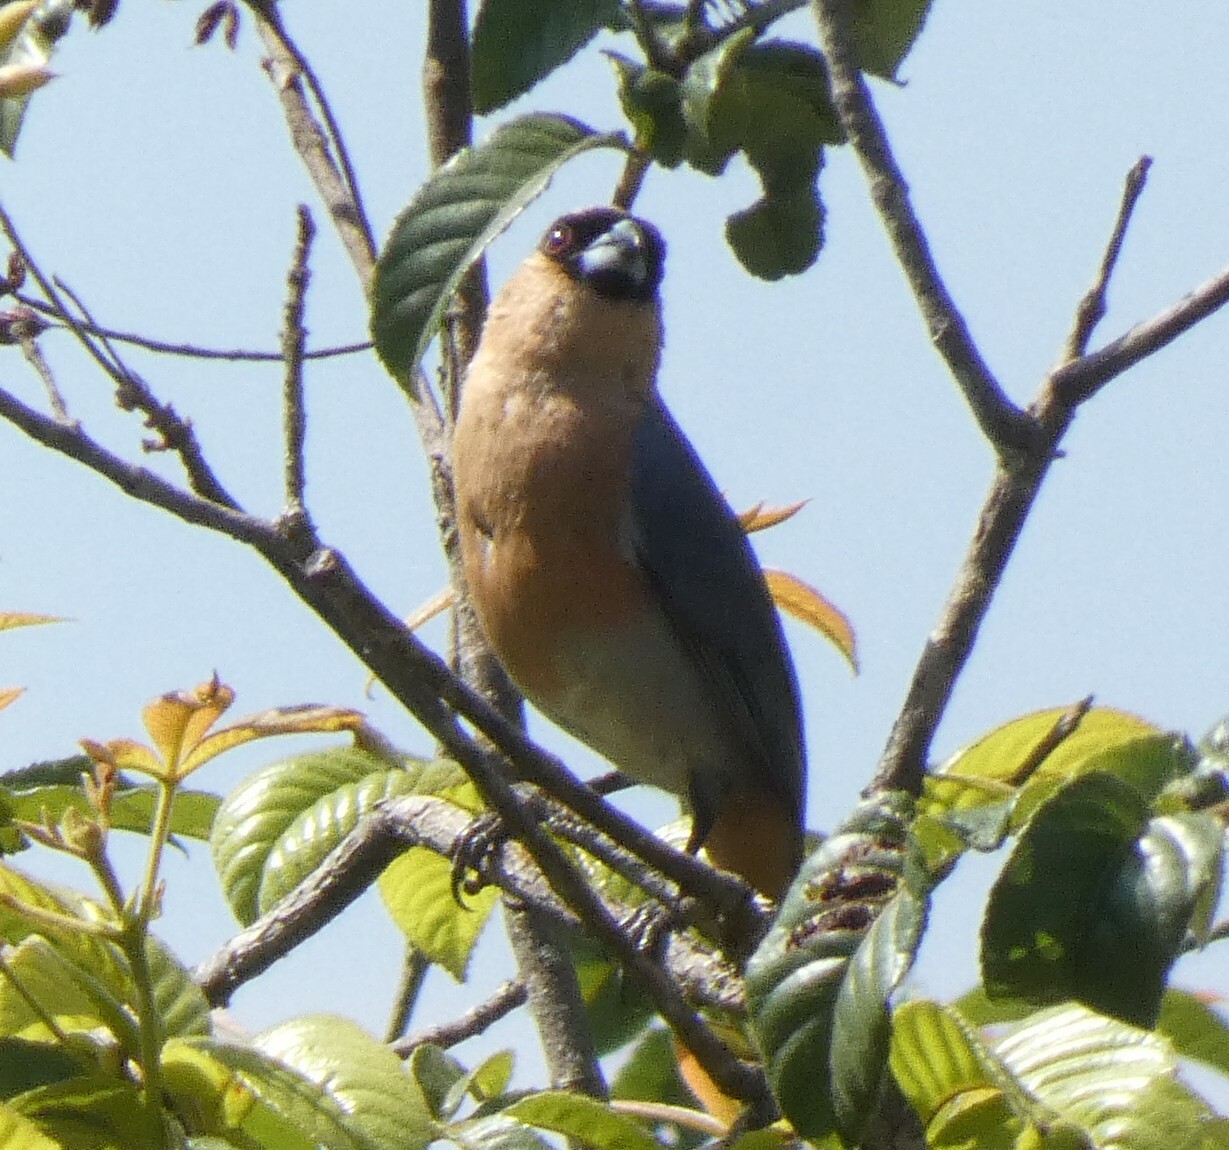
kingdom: Animalia
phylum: Chordata
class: Aves
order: Passeriformes
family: Thraupidae
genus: Schistochlamys
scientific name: Schistochlamys ruficapillus
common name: Cinnamon tanager
